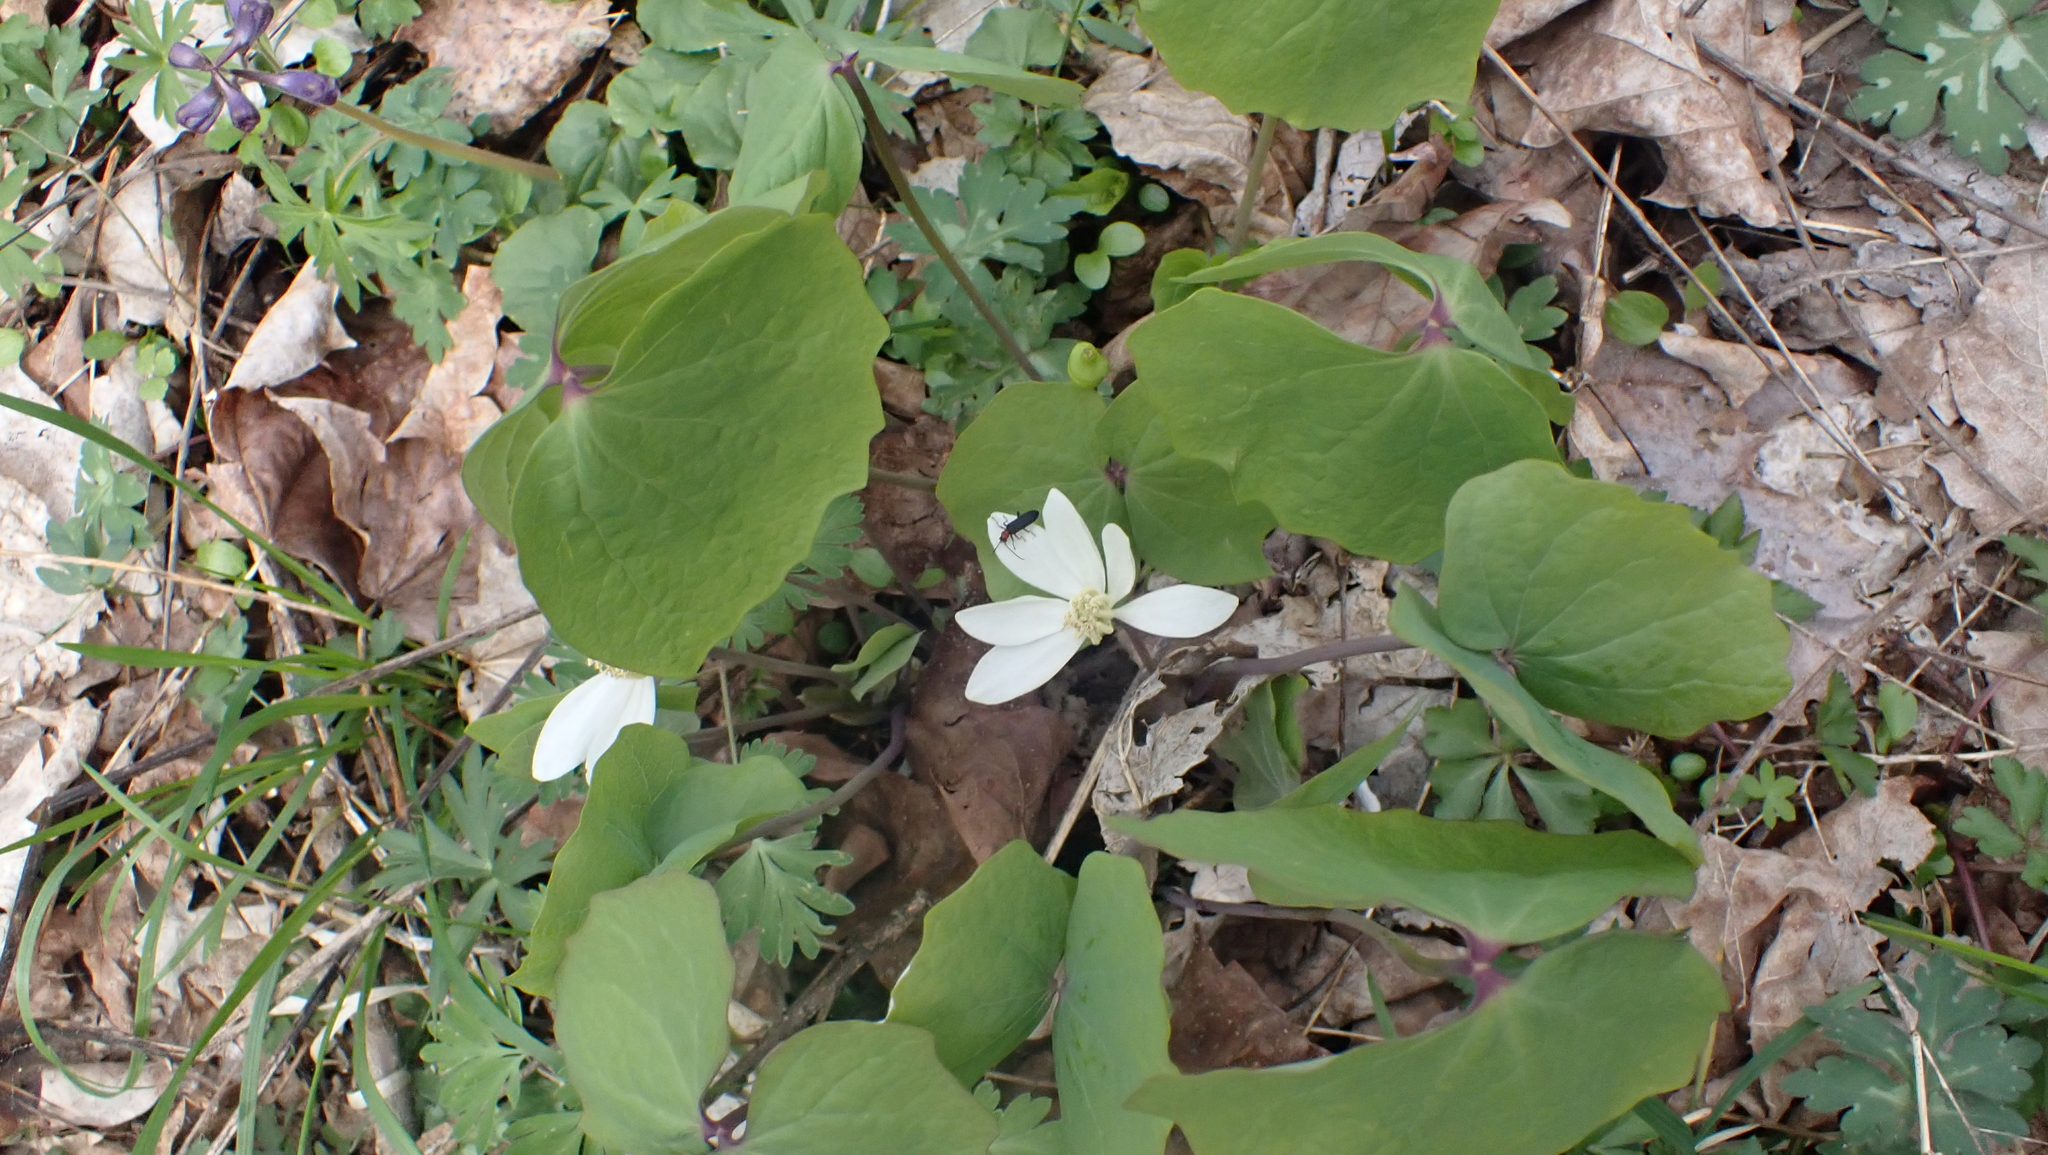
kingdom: Plantae
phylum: Tracheophyta
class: Magnoliopsida
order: Ranunculales
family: Berberidaceae
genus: Jeffersonia
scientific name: Jeffersonia diphylla
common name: Rheumatism-root
